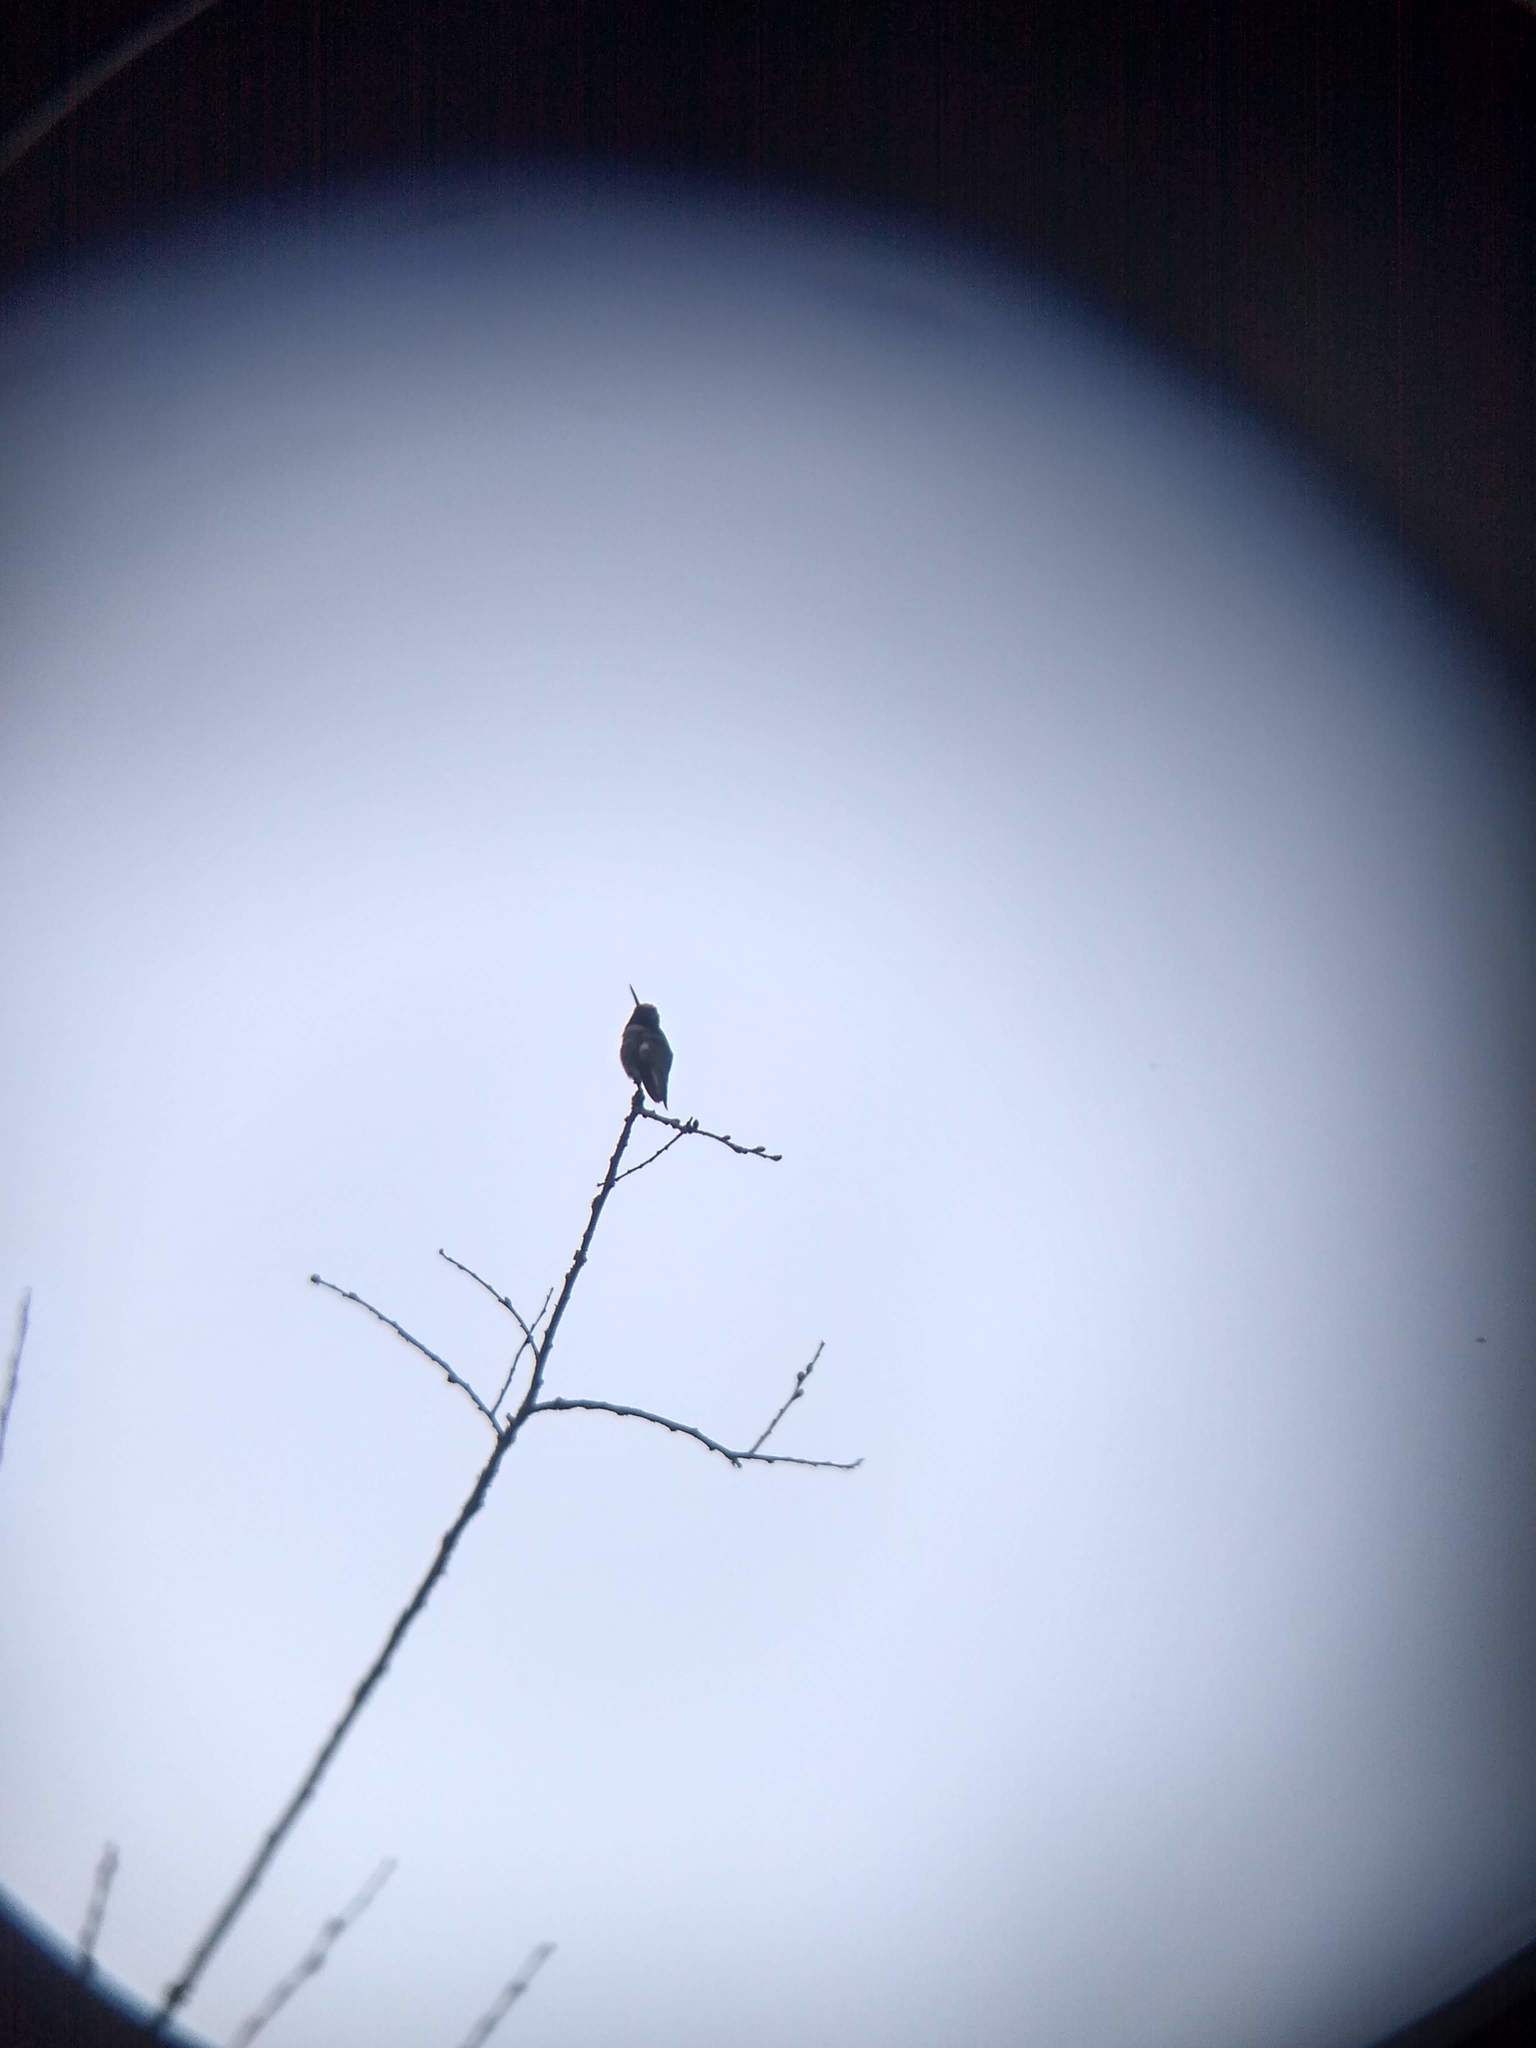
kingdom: Animalia
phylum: Chordata
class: Aves
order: Apodiformes
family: Trochilidae
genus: Calypte
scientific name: Calypte anna
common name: Anna's hummingbird
